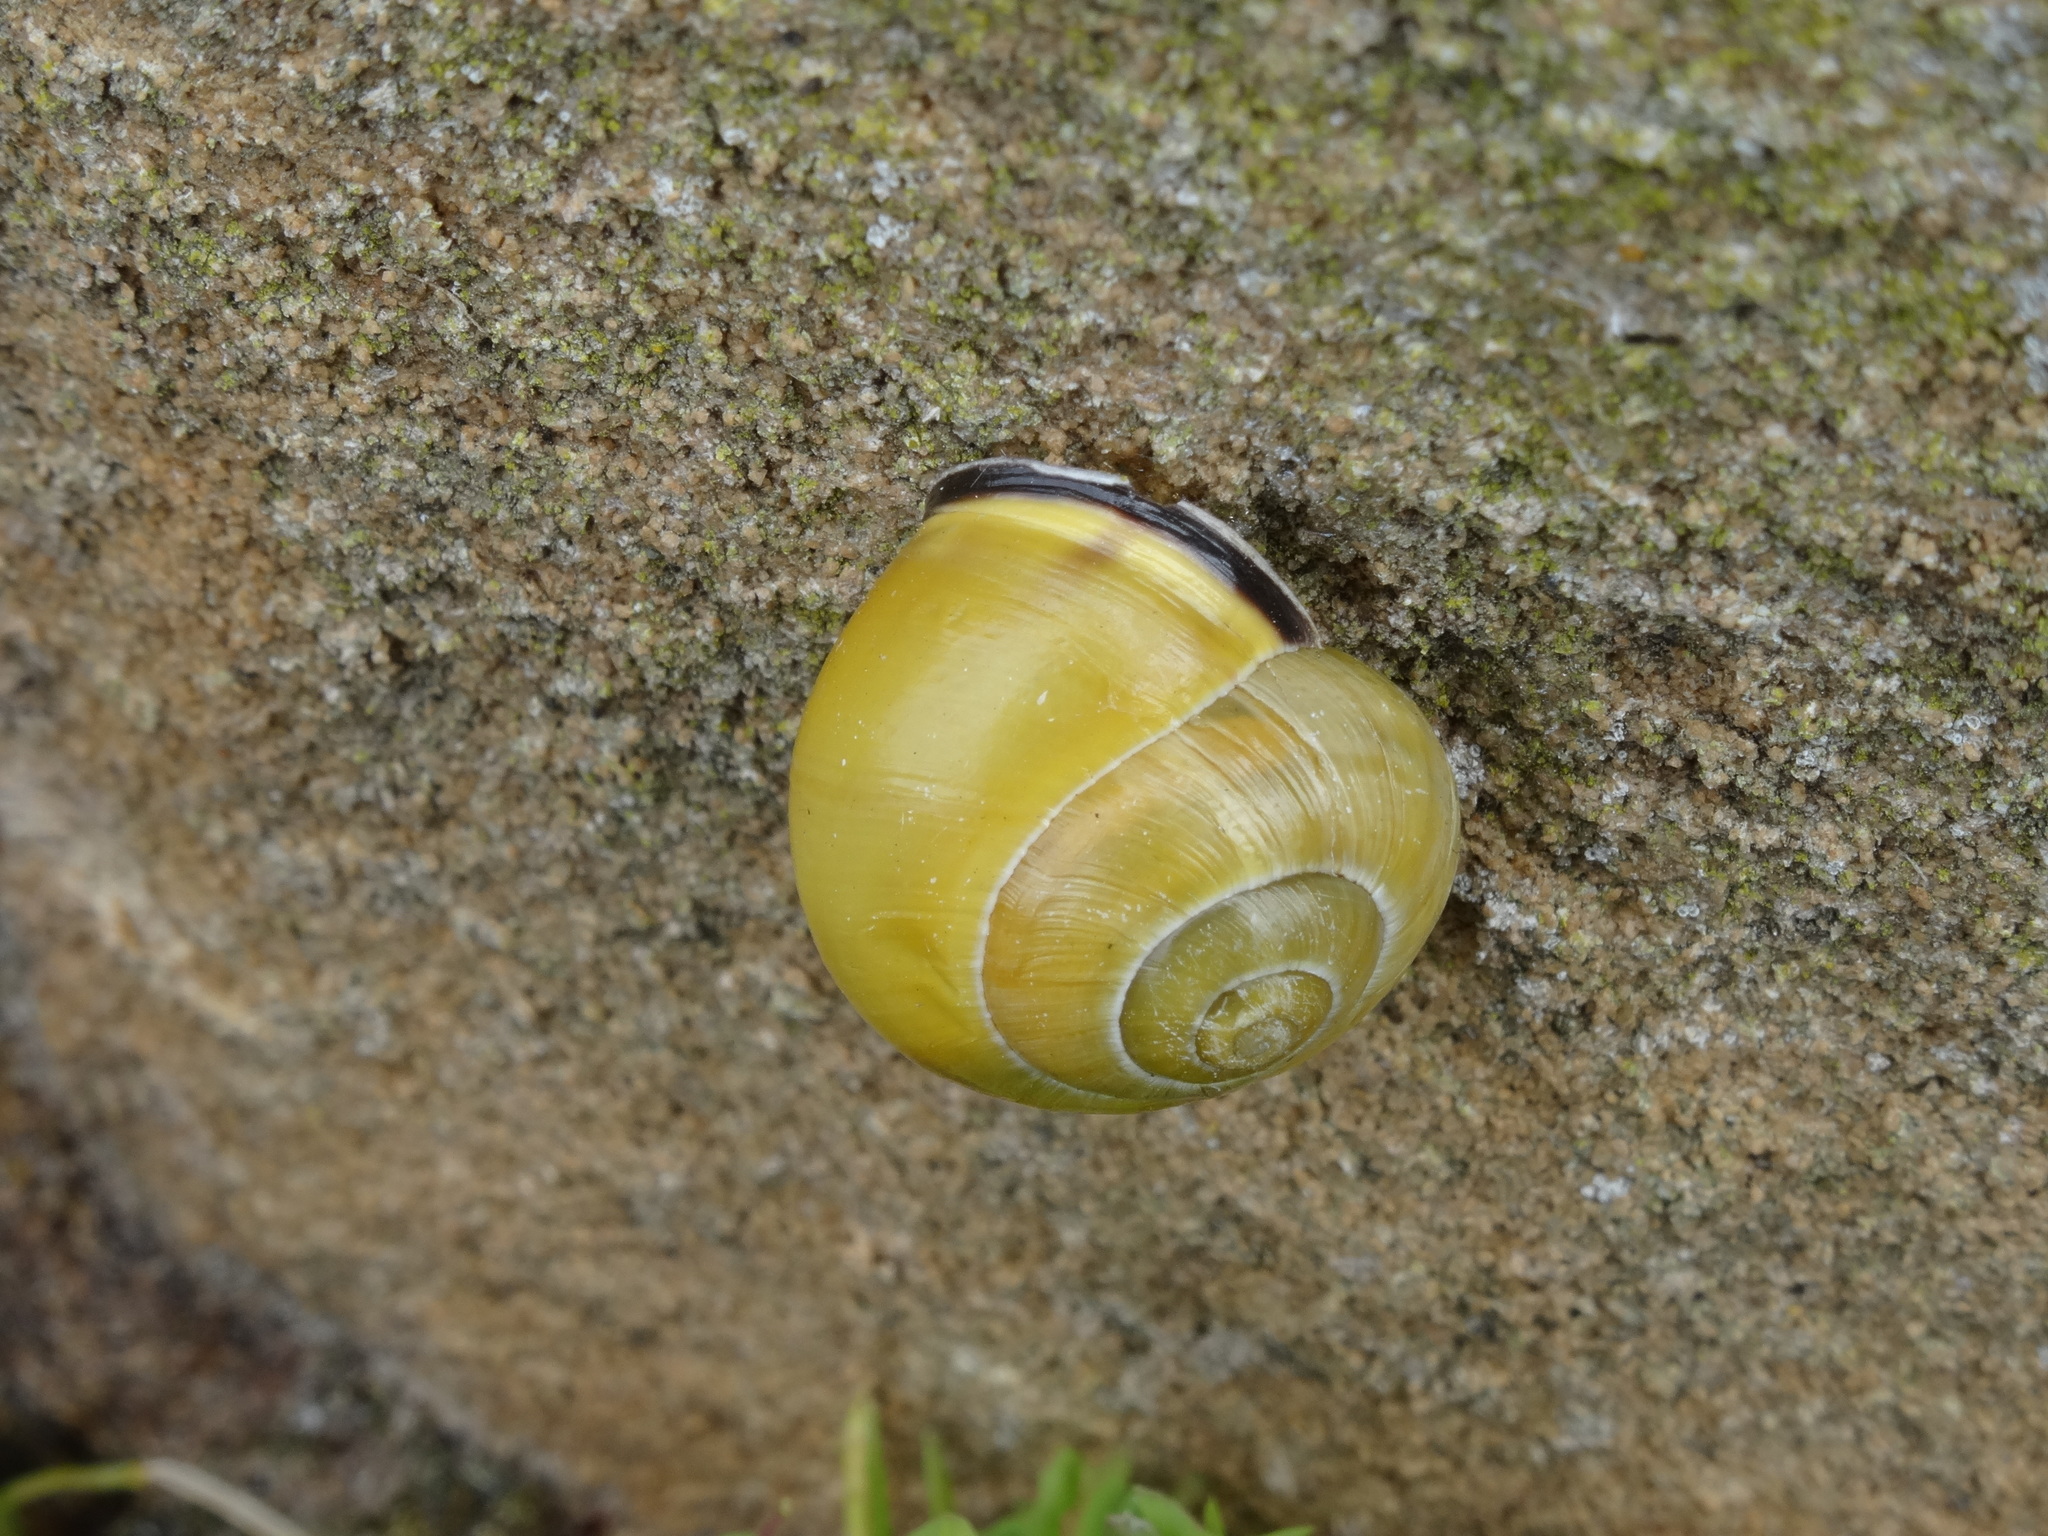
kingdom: Animalia
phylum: Mollusca
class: Gastropoda
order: Stylommatophora
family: Helicidae
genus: Cepaea
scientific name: Cepaea nemoralis
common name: Grovesnail
